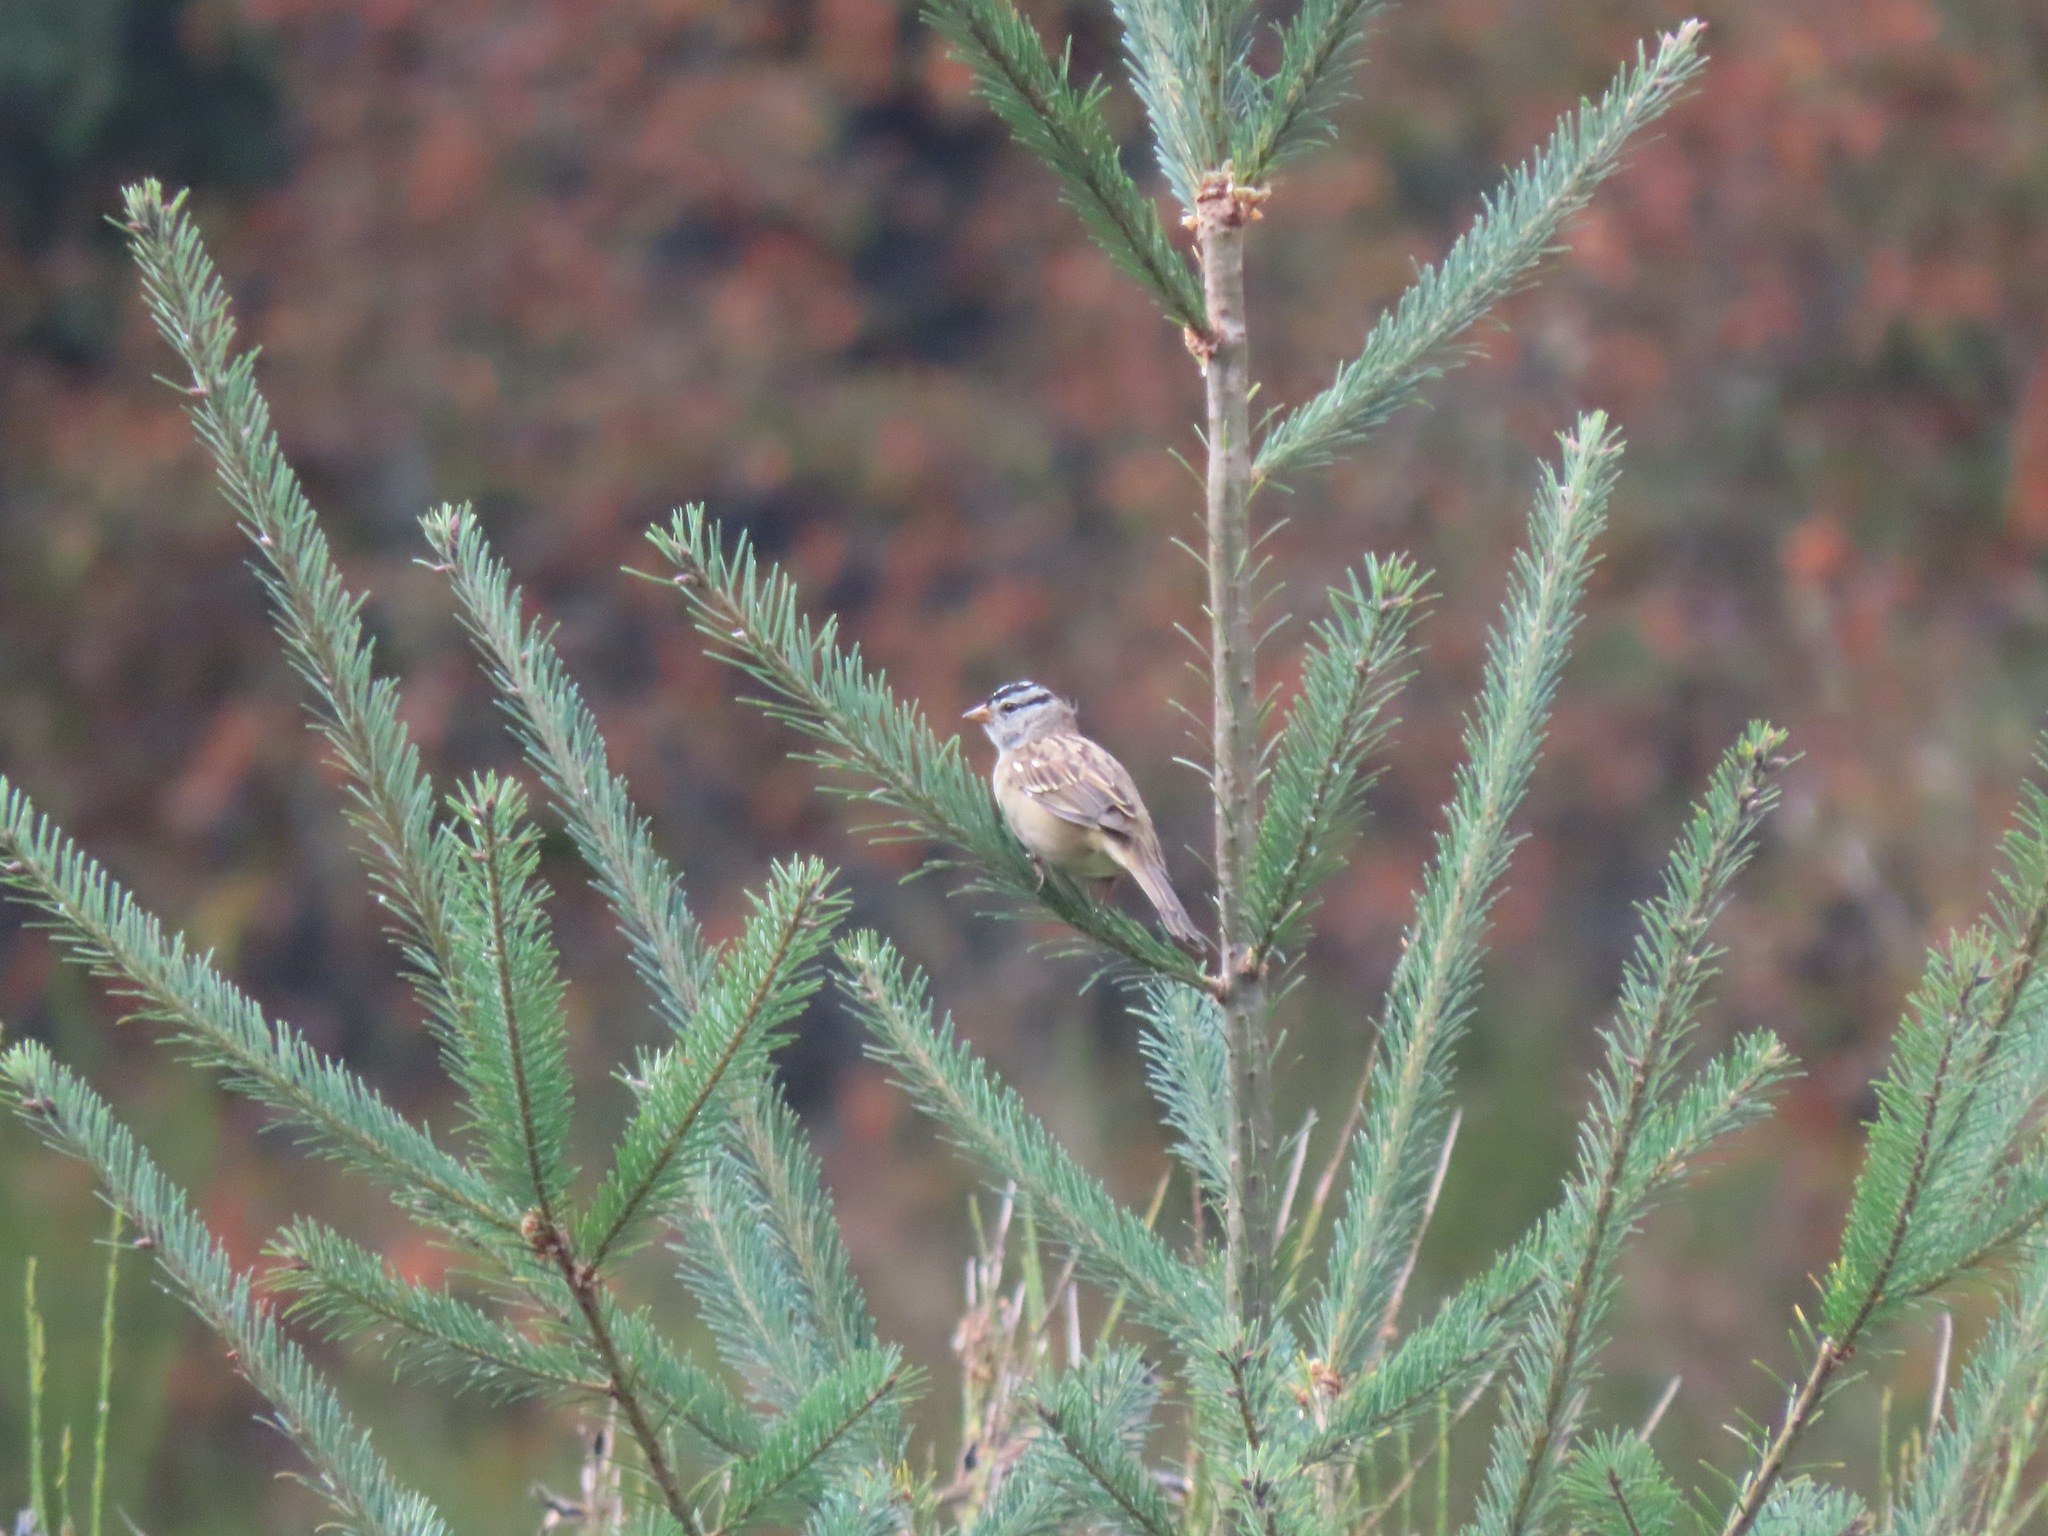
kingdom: Animalia
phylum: Chordata
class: Aves
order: Passeriformes
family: Passerellidae
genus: Zonotrichia
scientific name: Zonotrichia leucophrys
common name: White-crowned sparrow
